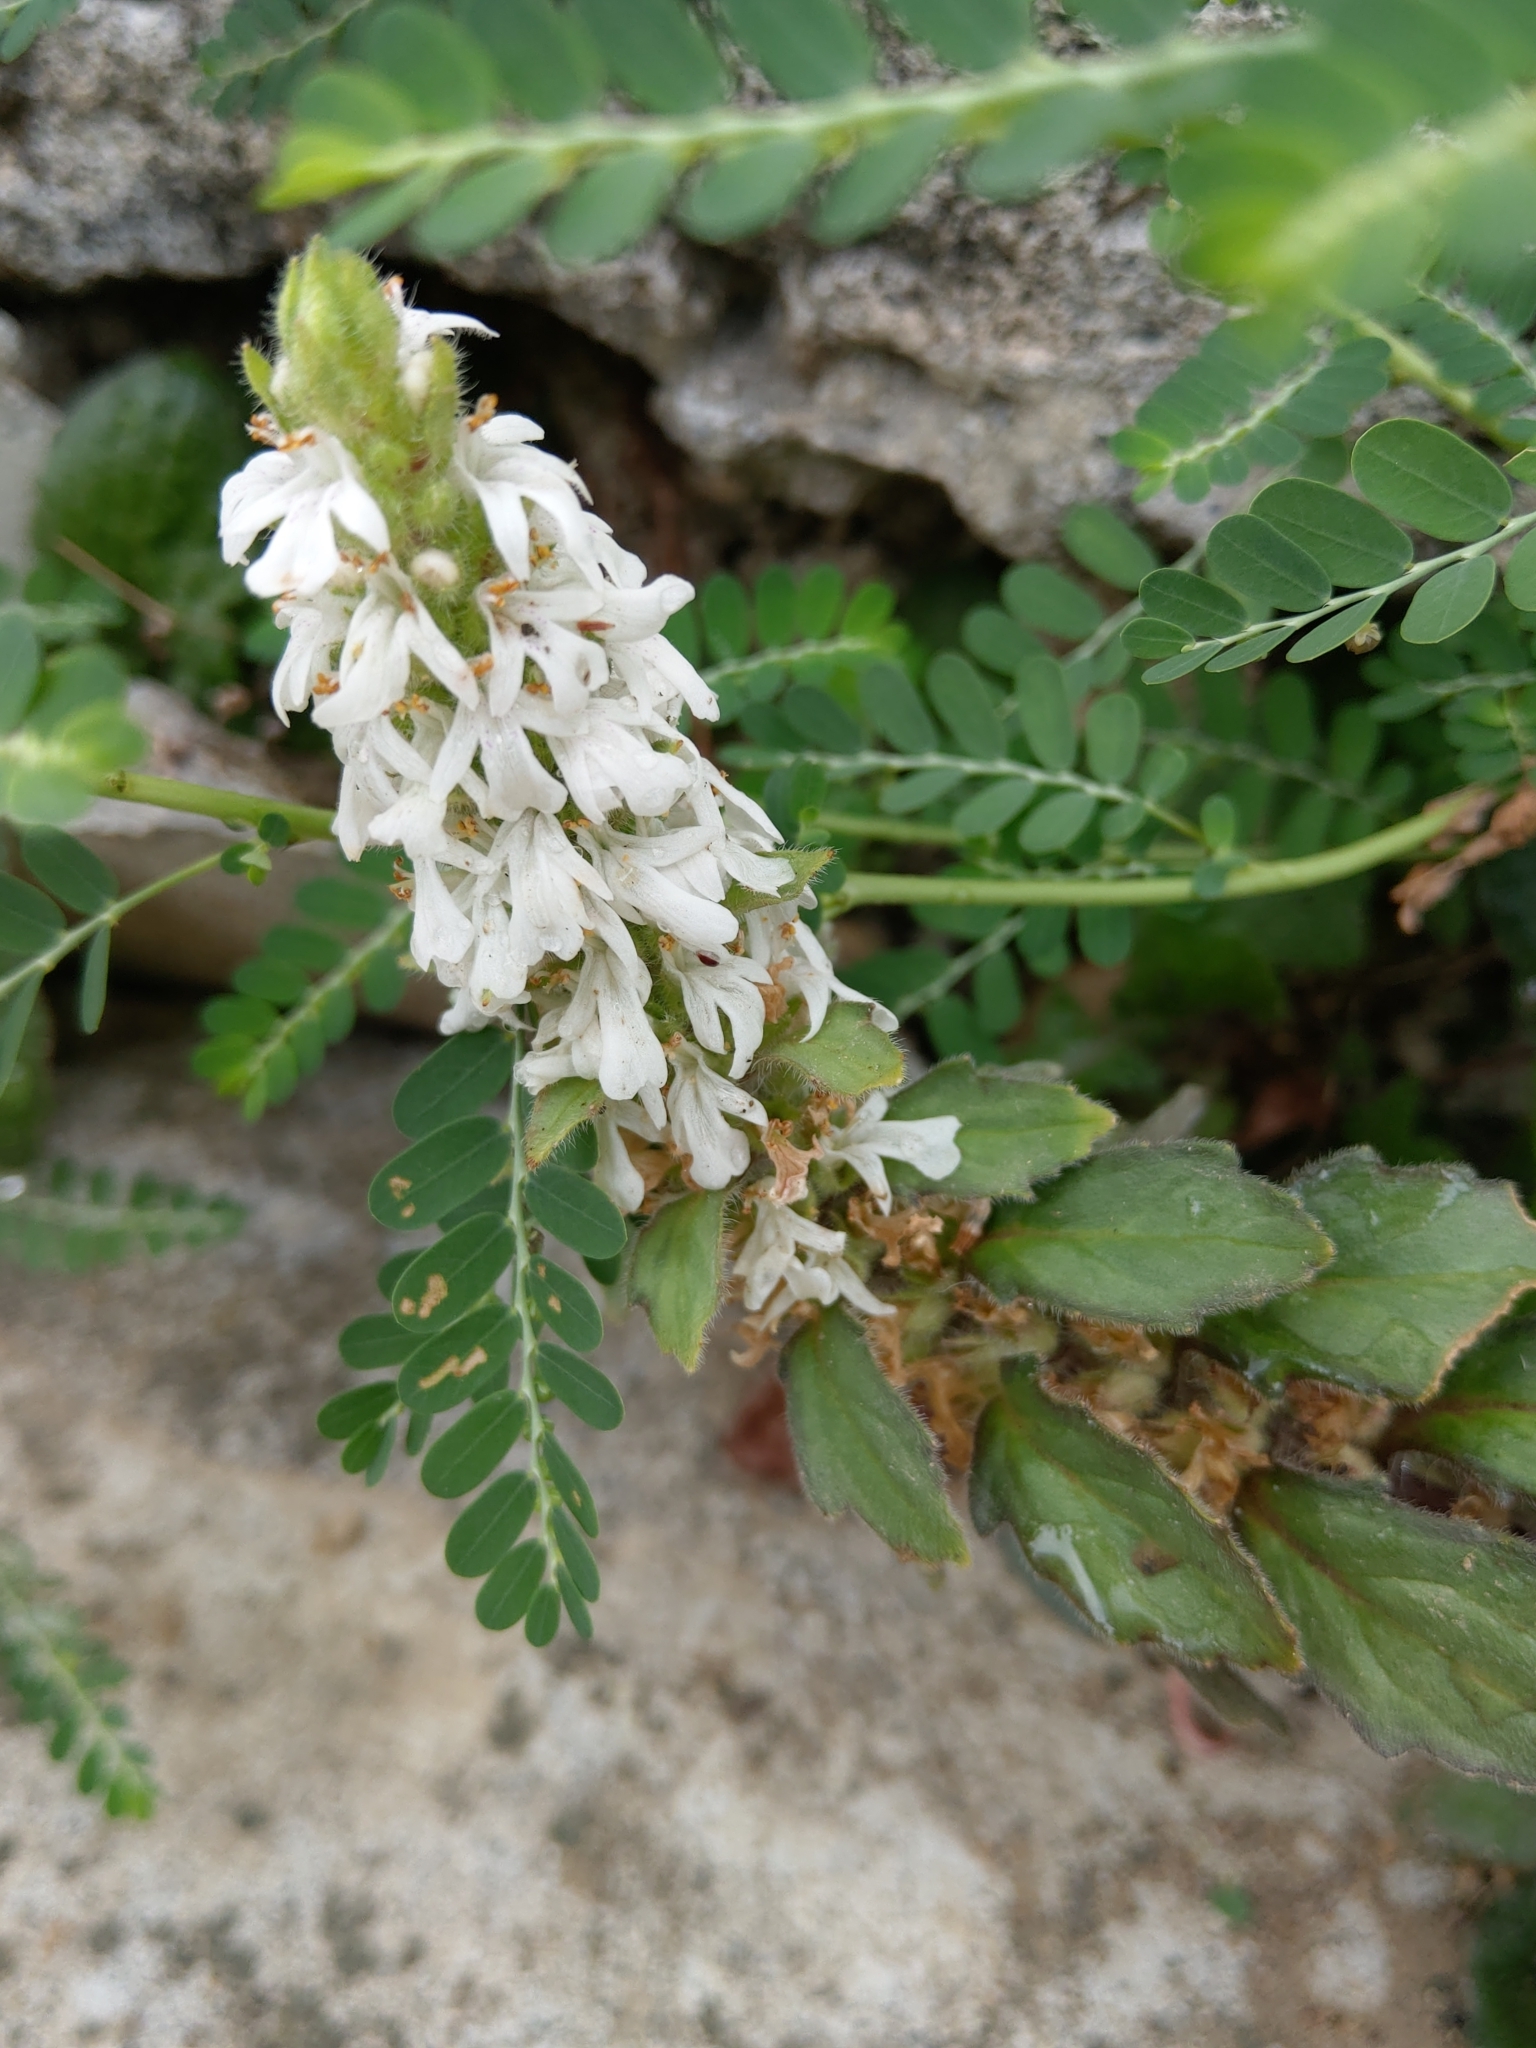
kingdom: Plantae
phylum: Tracheophyta
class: Magnoliopsida
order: Lamiales
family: Lamiaceae
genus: Ajuga
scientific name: Ajuga nipponensis
